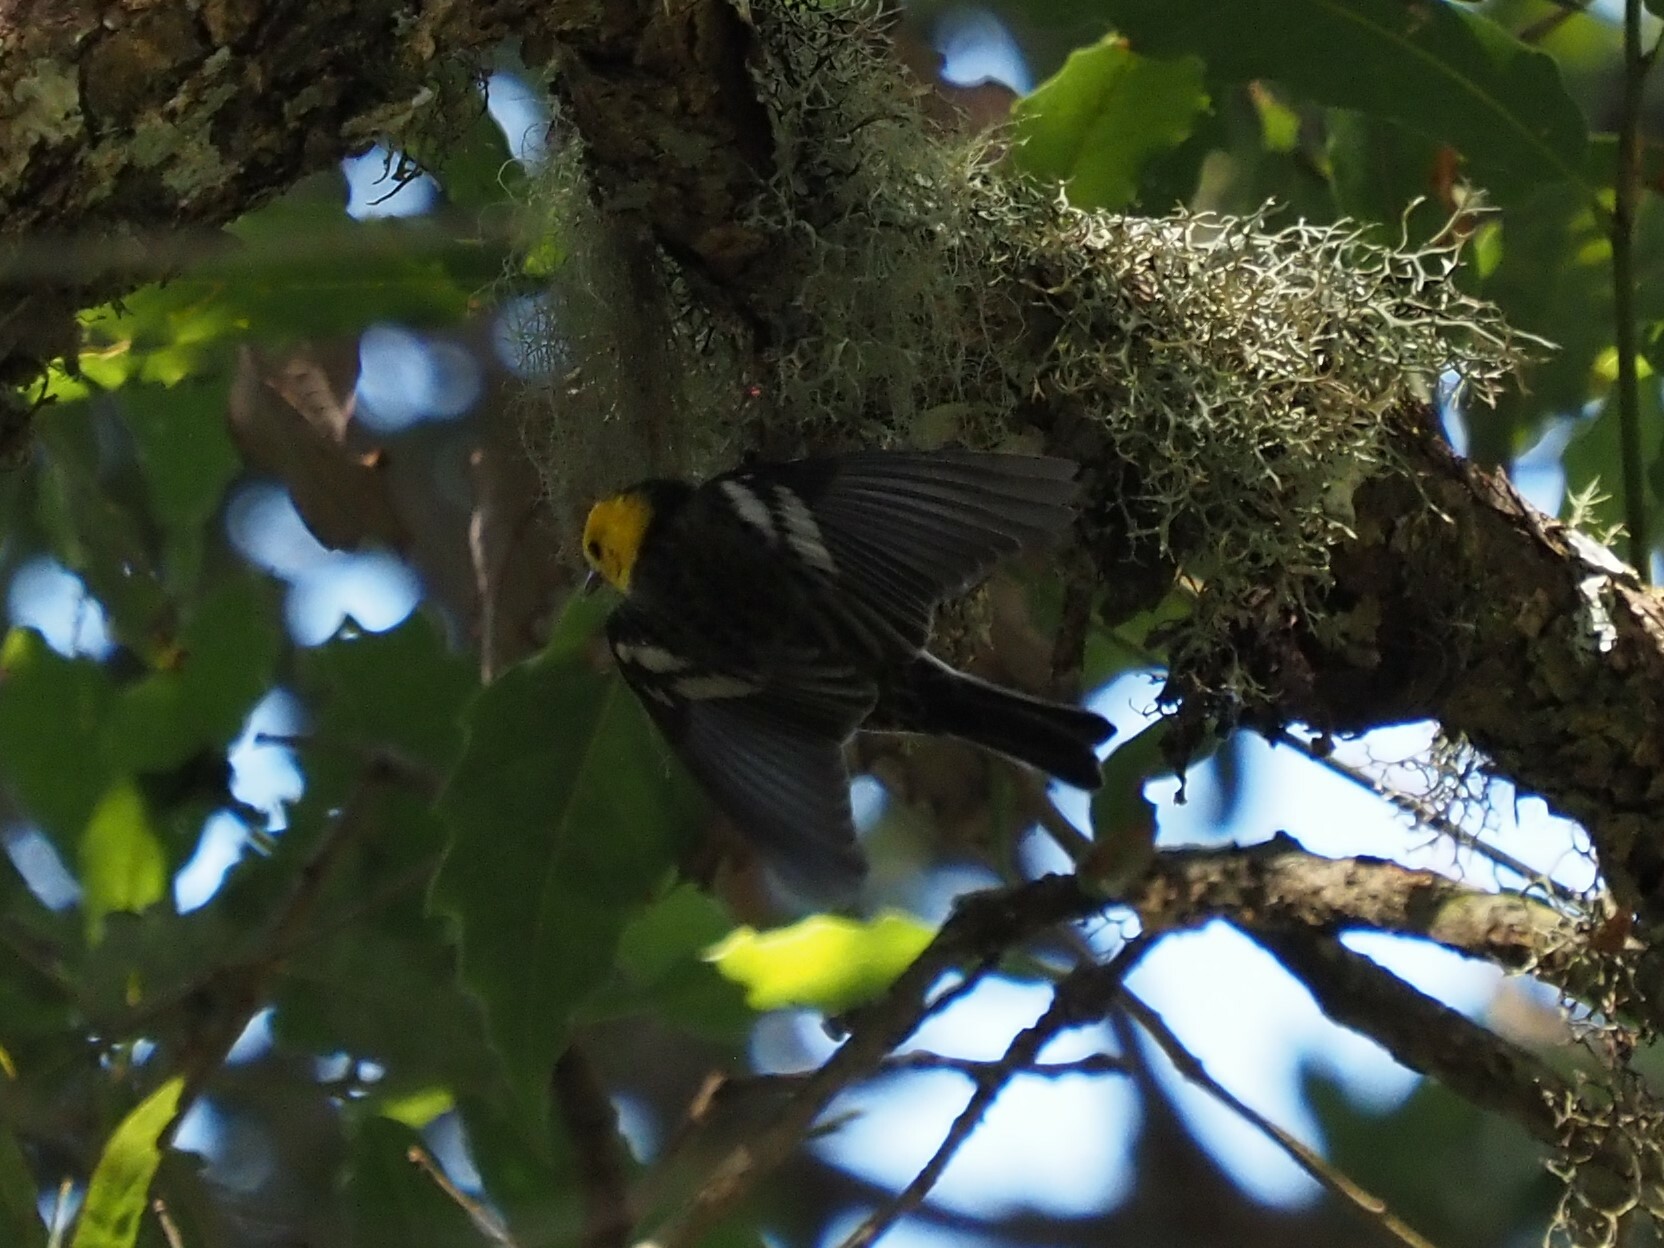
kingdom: Animalia
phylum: Chordata
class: Aves
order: Passeriformes
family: Parulidae
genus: Setophaga
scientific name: Setophaga occidentalis
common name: Hermit warbler
